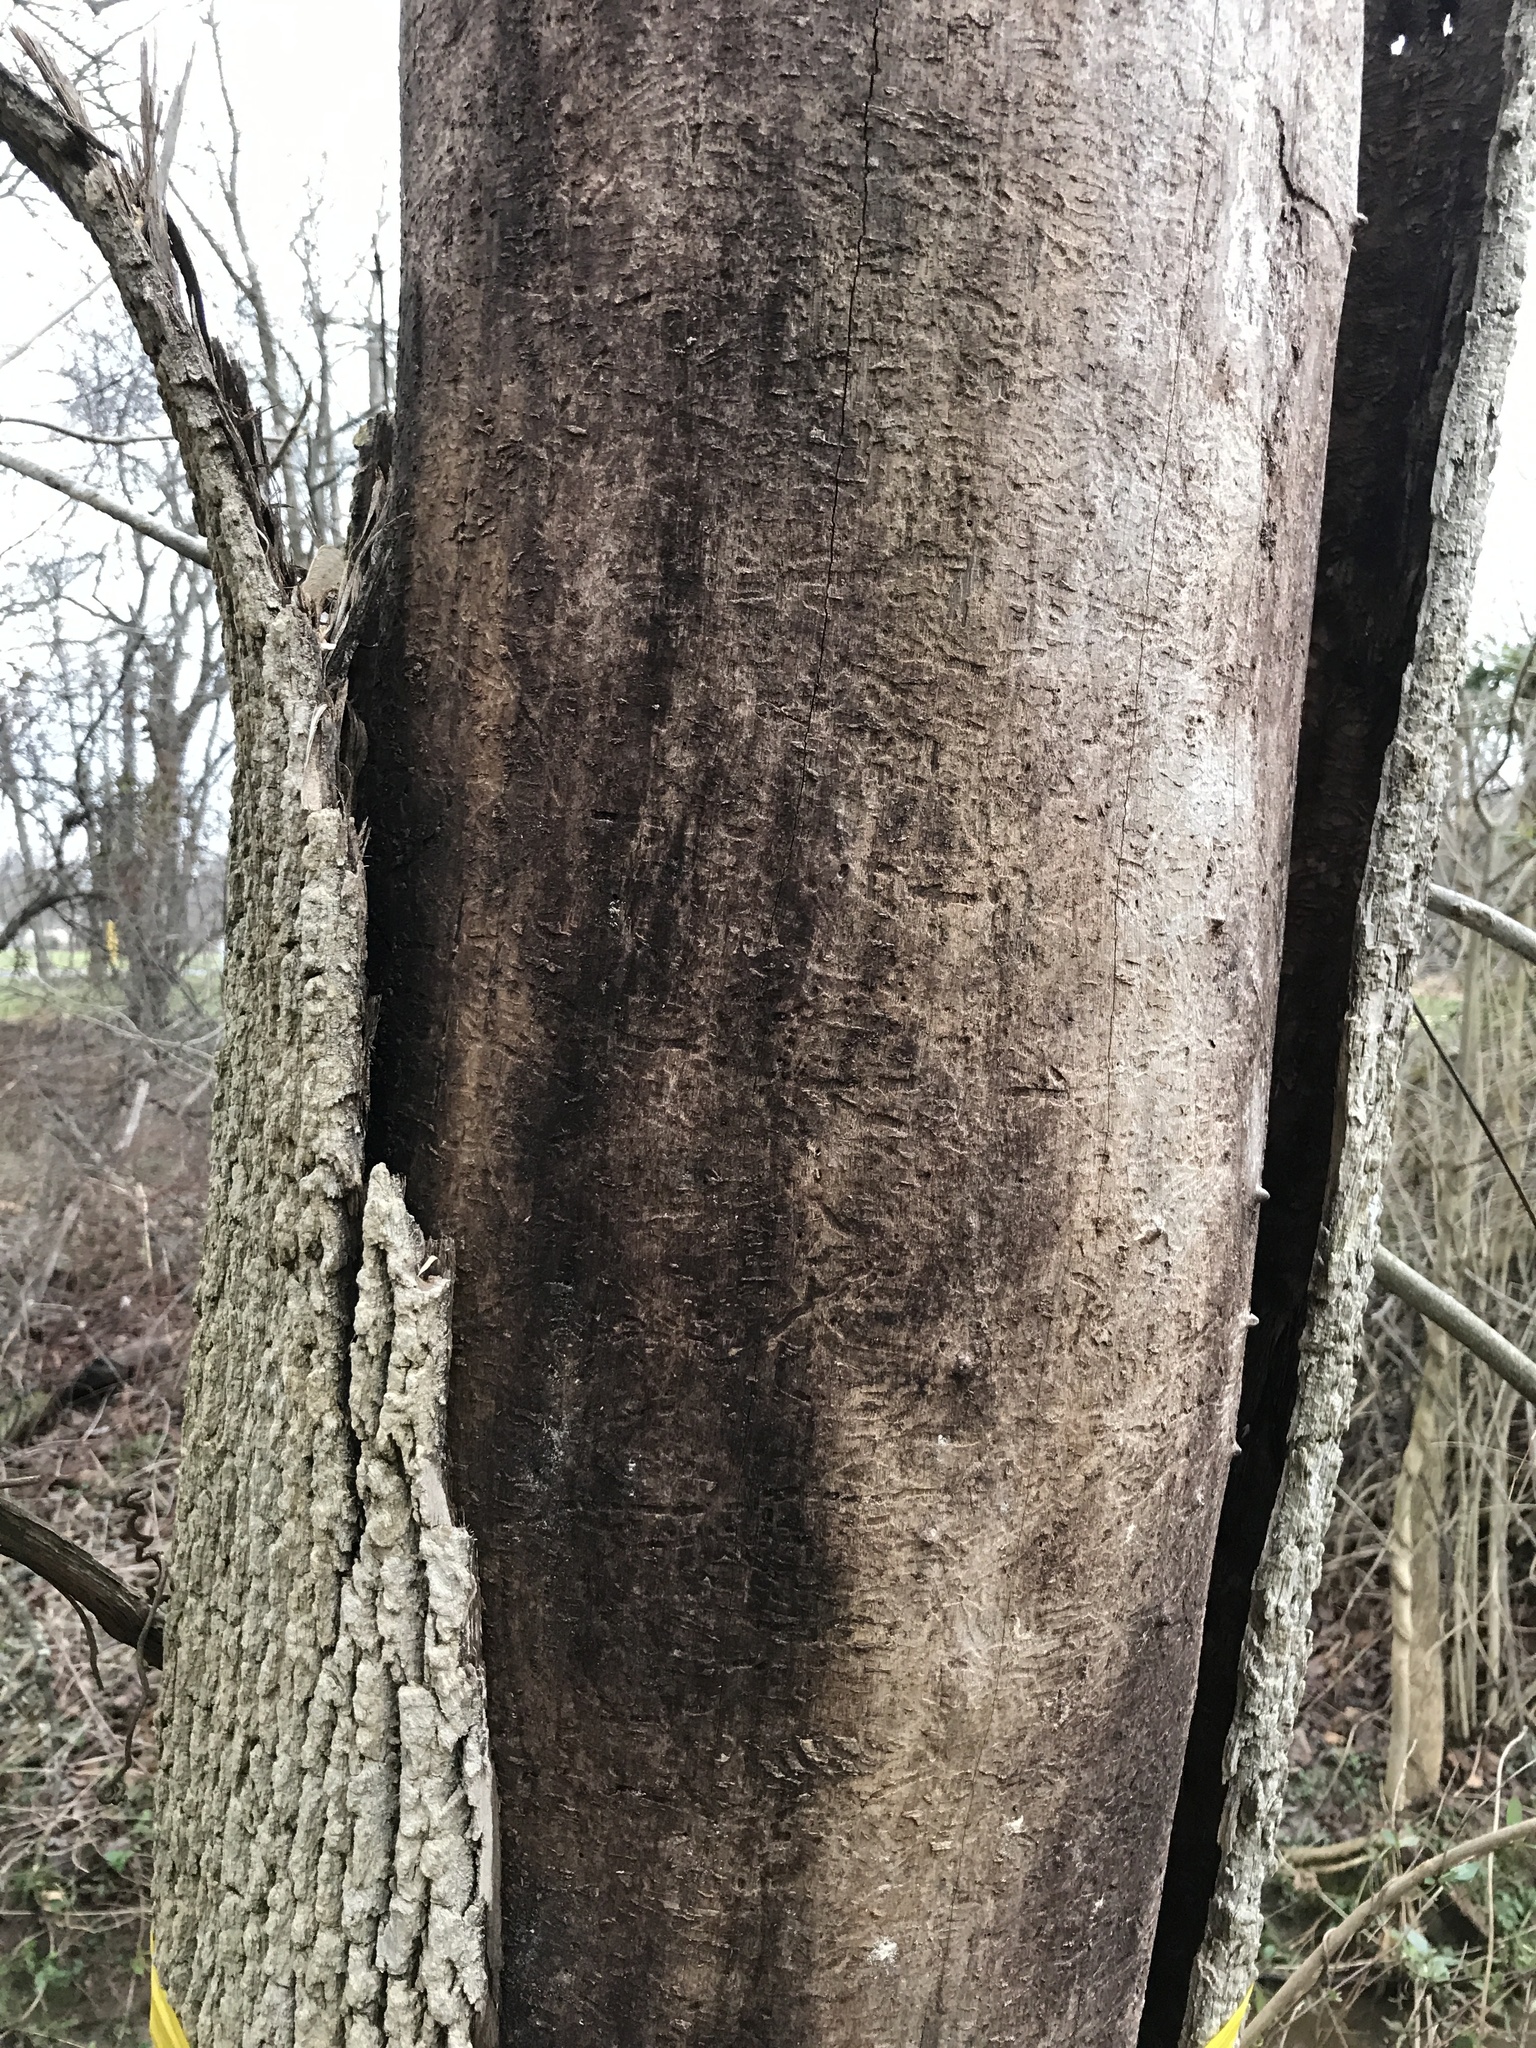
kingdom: Animalia
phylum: Arthropoda
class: Insecta
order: Coleoptera
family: Buprestidae
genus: Agrilus
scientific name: Agrilus planipennis
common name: Emerald ash borer
